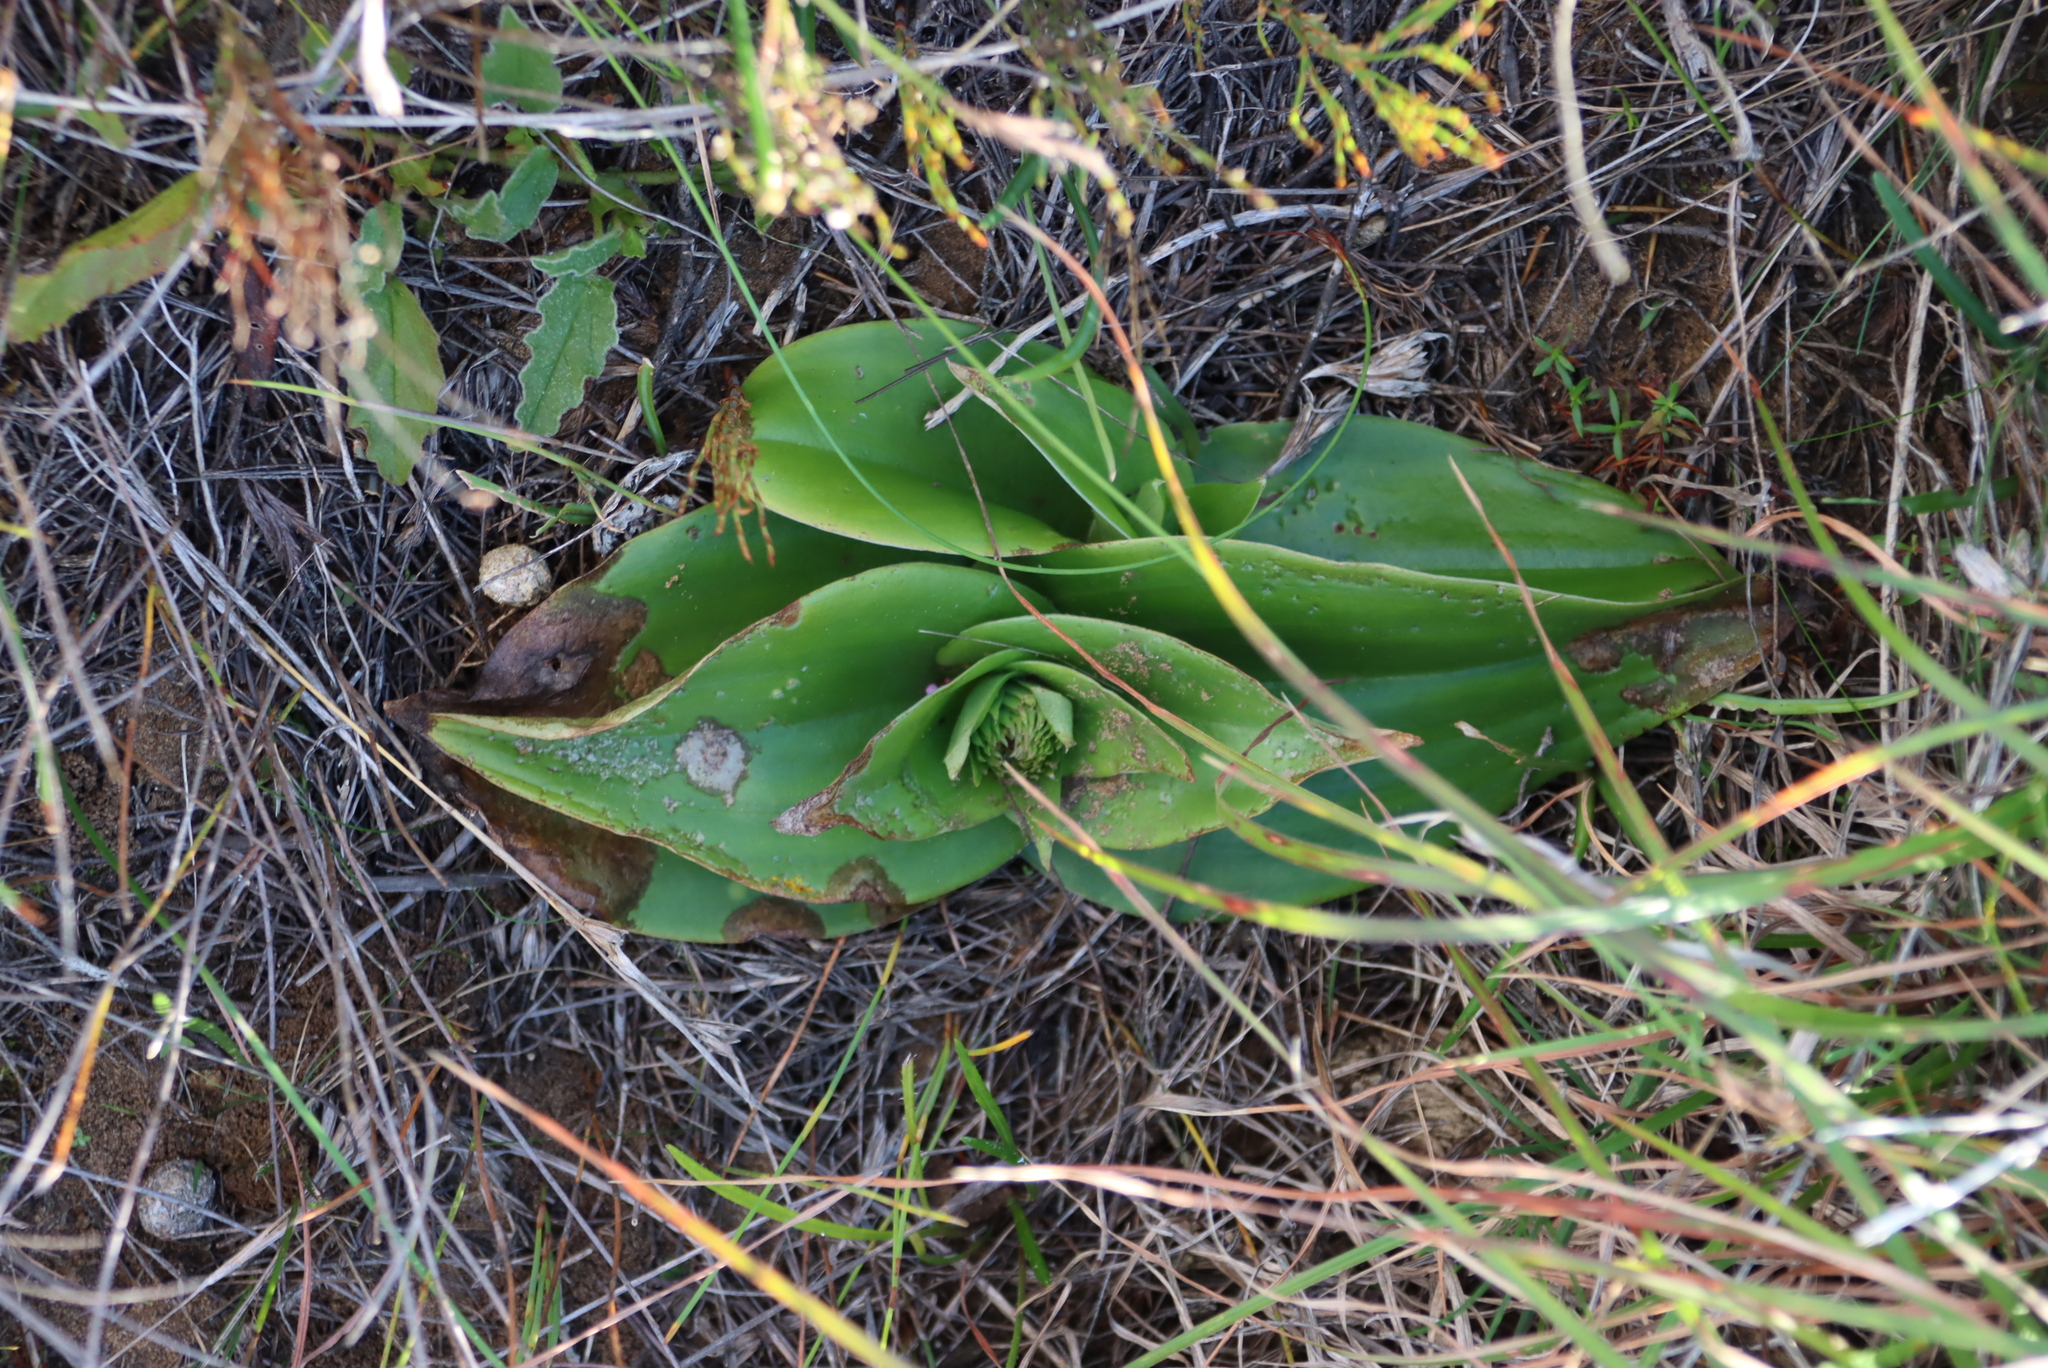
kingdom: Plantae
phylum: Tracheophyta
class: Liliopsida
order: Asparagales
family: Orchidaceae
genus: Satyrium
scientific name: Satyrium carneum
